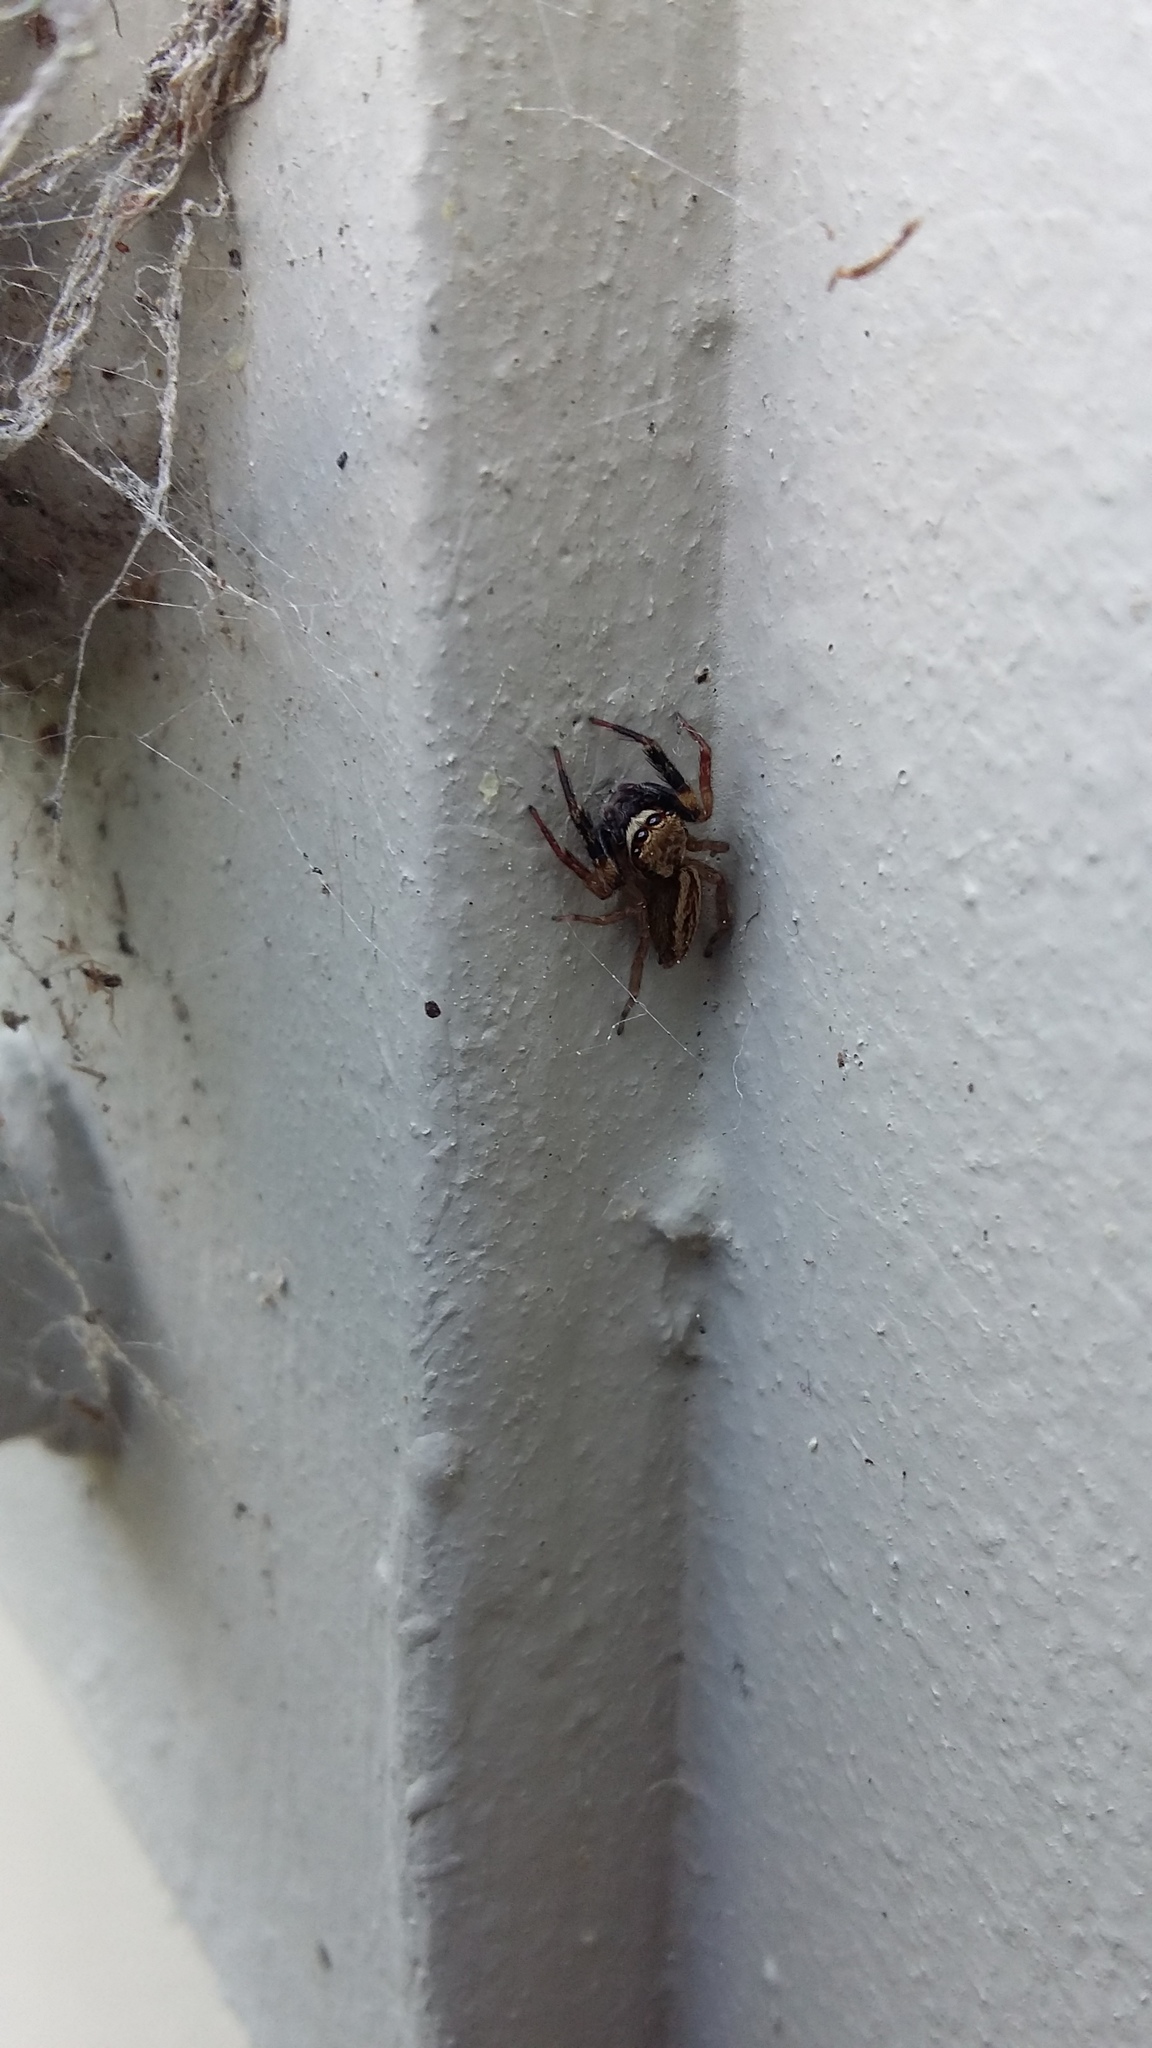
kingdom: Animalia
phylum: Arthropoda
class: Arachnida
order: Araneae
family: Salticidae
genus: Trite
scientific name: Trite auricoma
